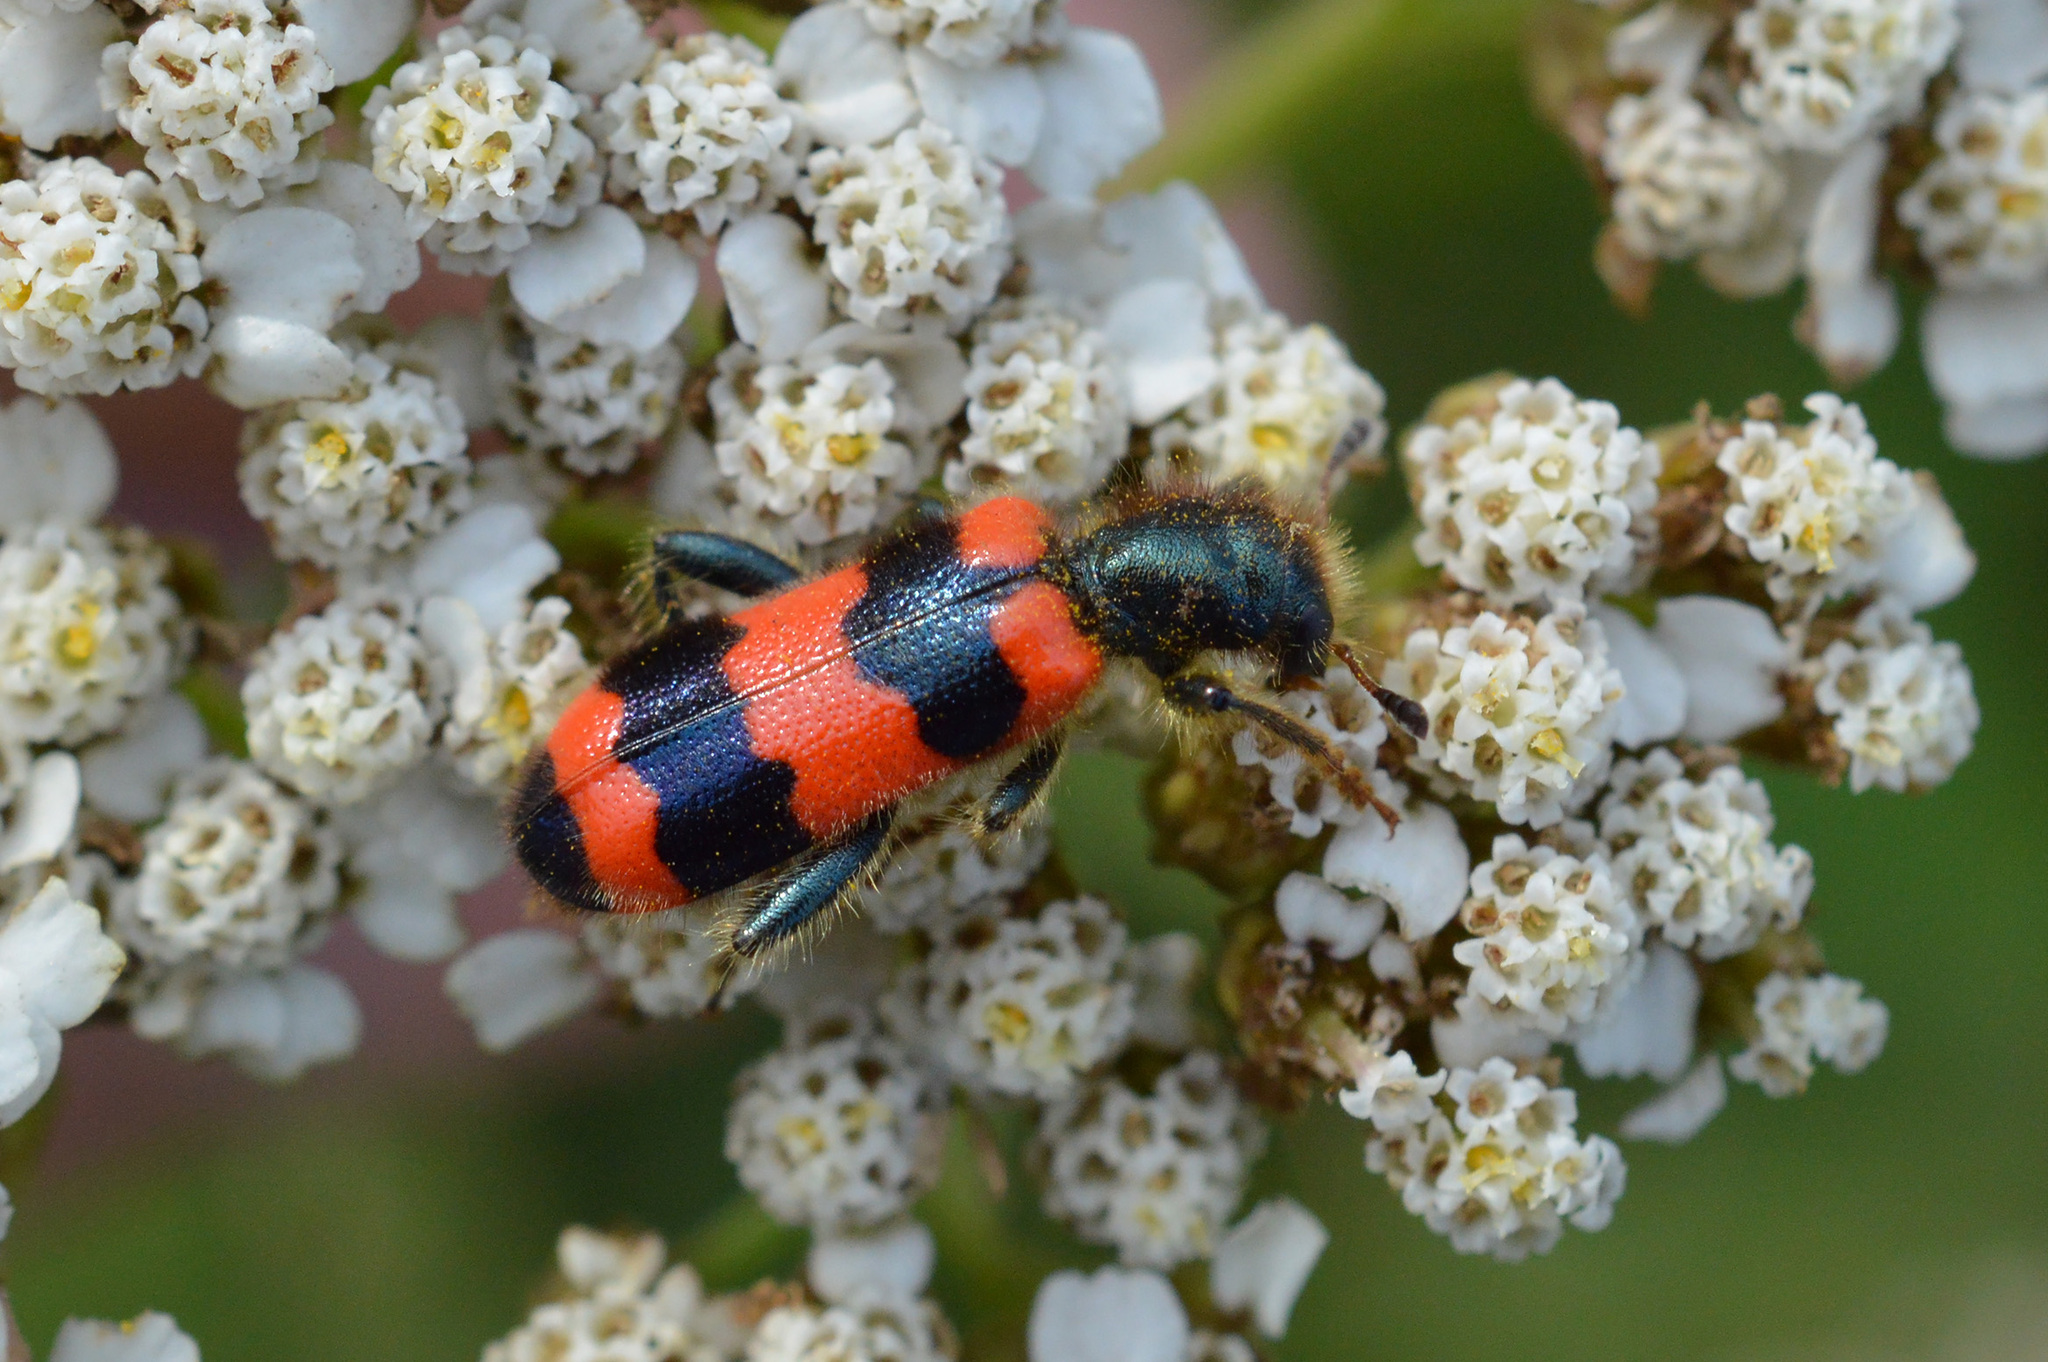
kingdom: Animalia
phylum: Arthropoda
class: Insecta
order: Coleoptera
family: Cleridae
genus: Trichodes
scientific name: Trichodes apiarius
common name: Bee-eating beetle
